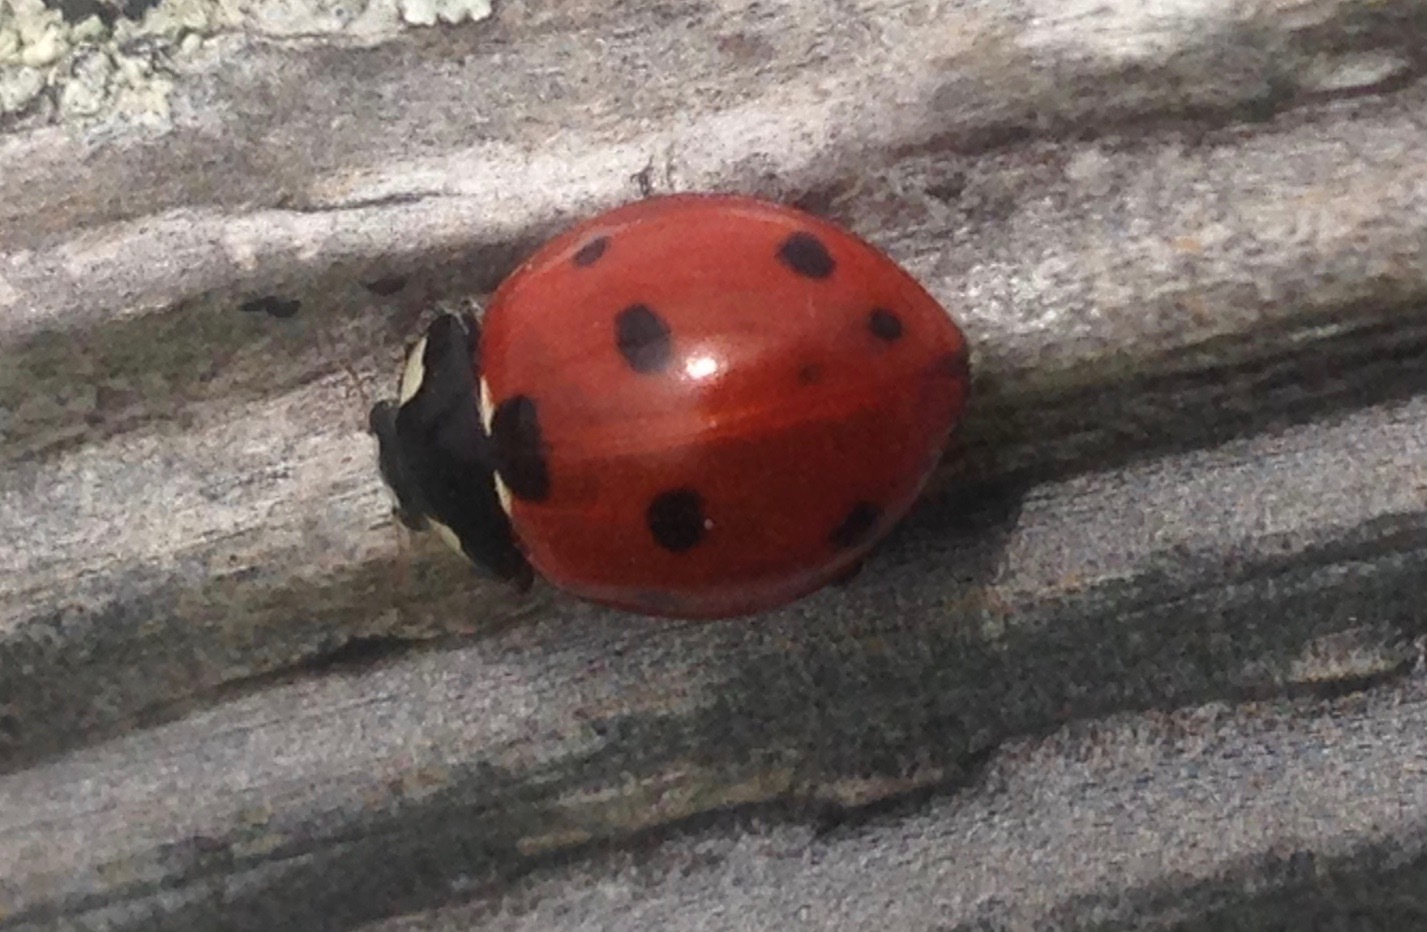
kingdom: Animalia
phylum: Arthropoda
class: Insecta
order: Coleoptera
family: Coccinellidae
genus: Coccinella
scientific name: Coccinella septempunctata
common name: Sevenspotted lady beetle
